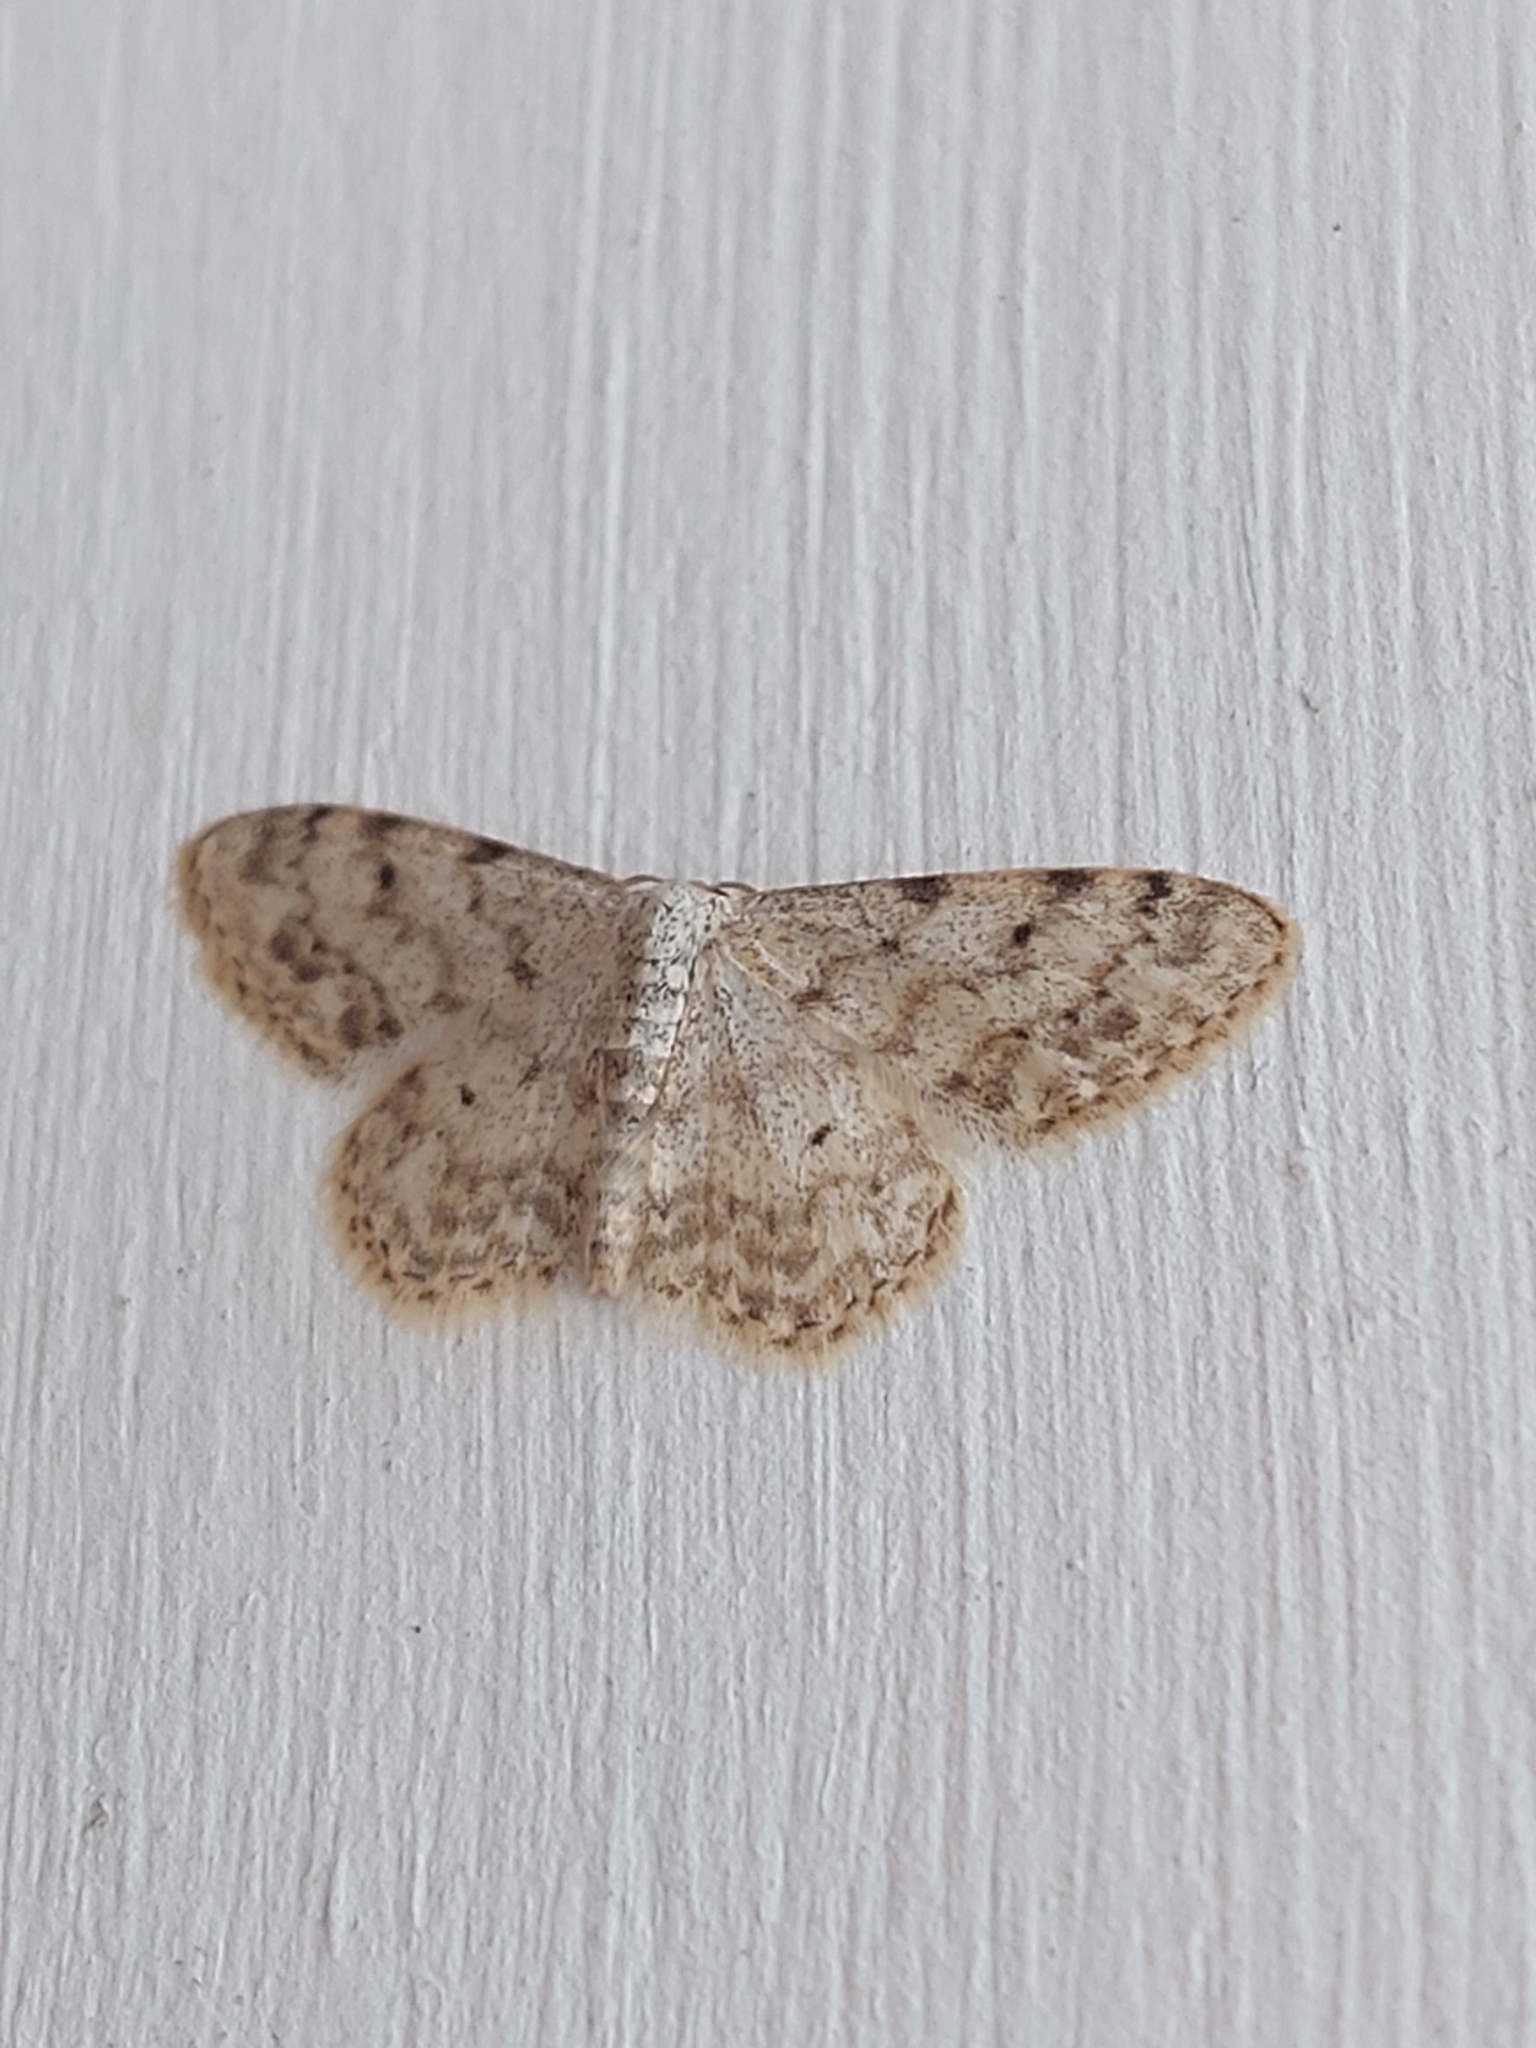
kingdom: Animalia
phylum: Arthropoda
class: Insecta
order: Lepidoptera
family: Geometridae
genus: Idaea
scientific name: Idaea camparia
